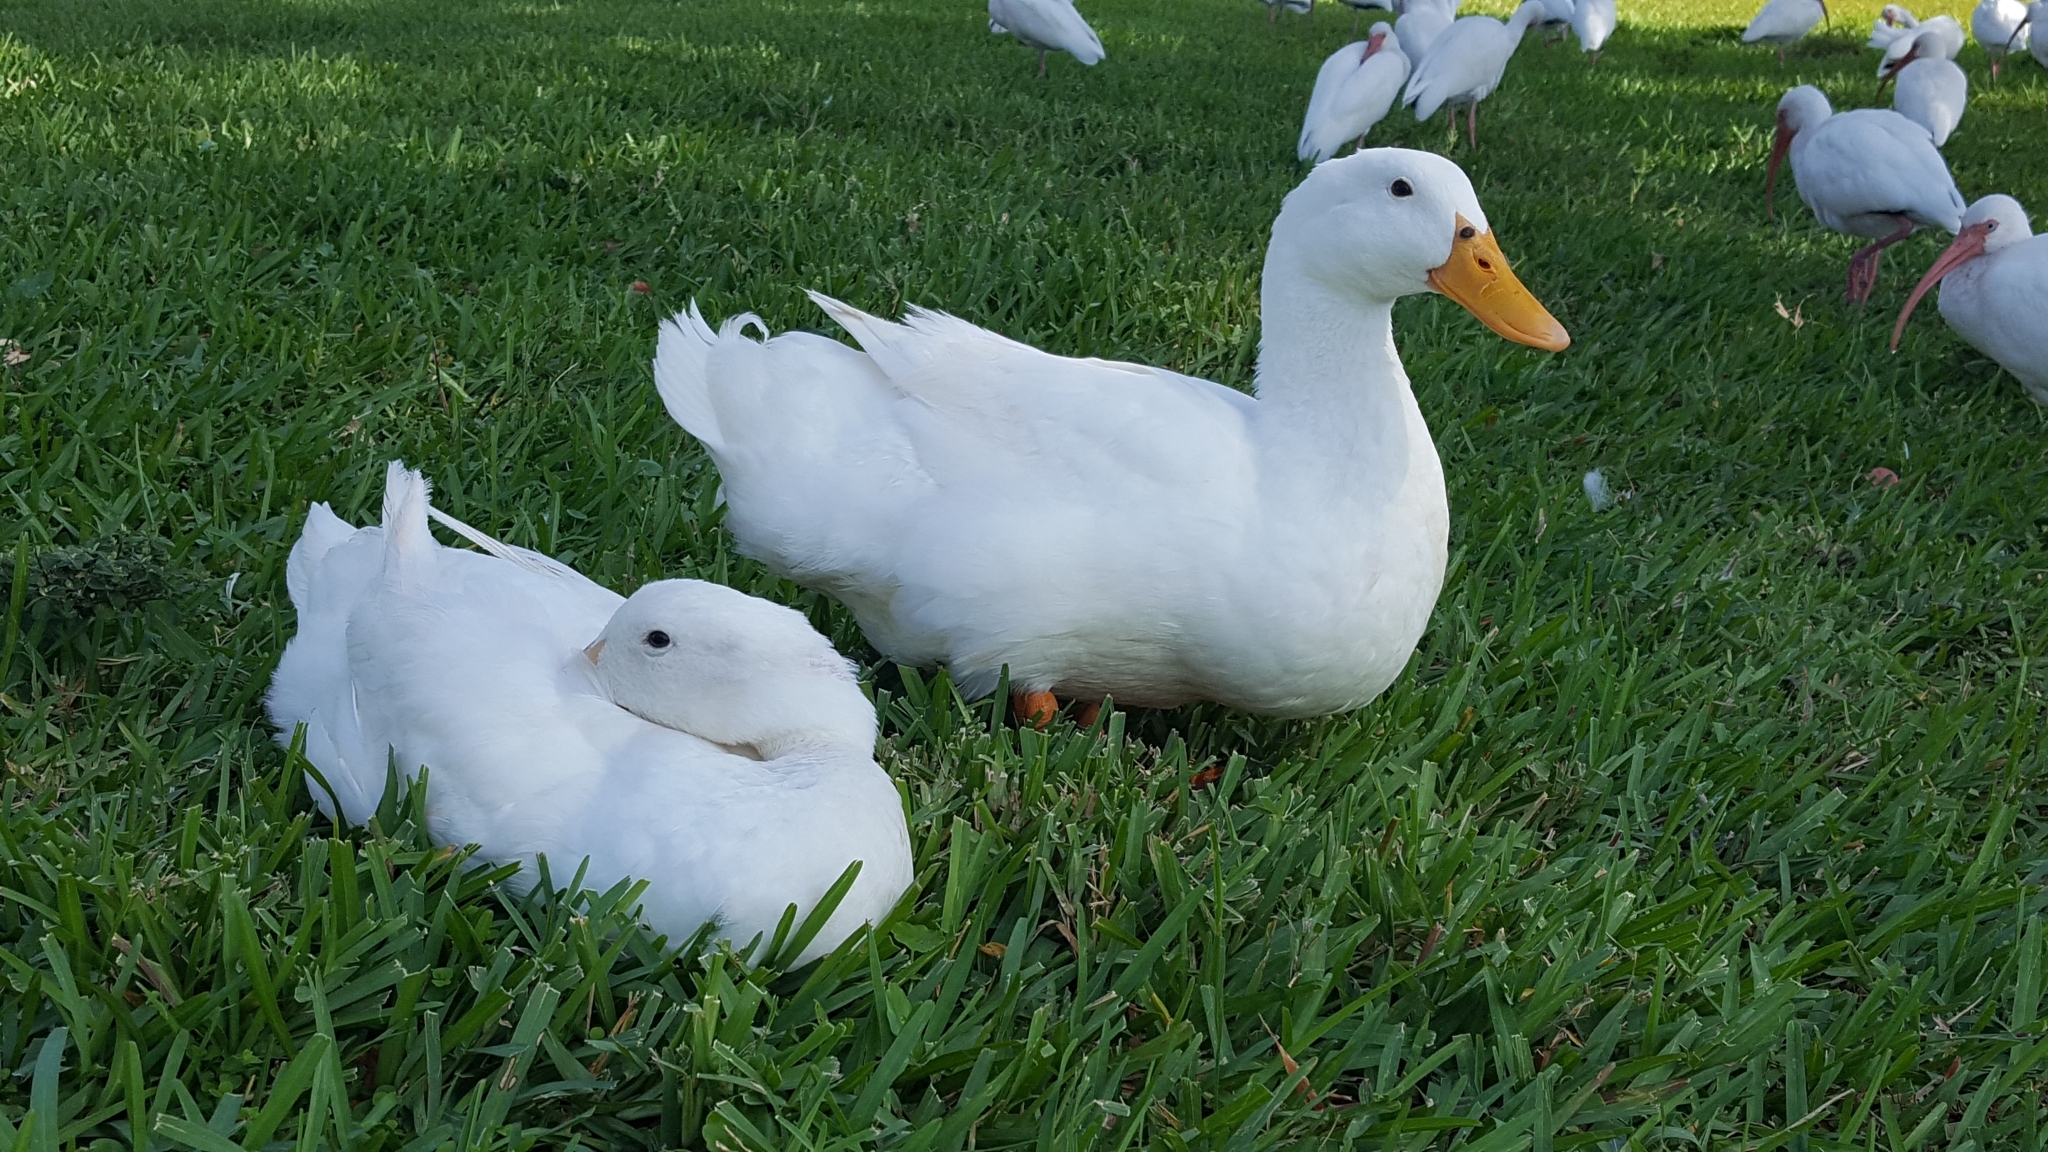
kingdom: Animalia
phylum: Chordata
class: Aves
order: Anseriformes
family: Anatidae
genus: Anas
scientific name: Anas platyrhynchos
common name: Mallard
